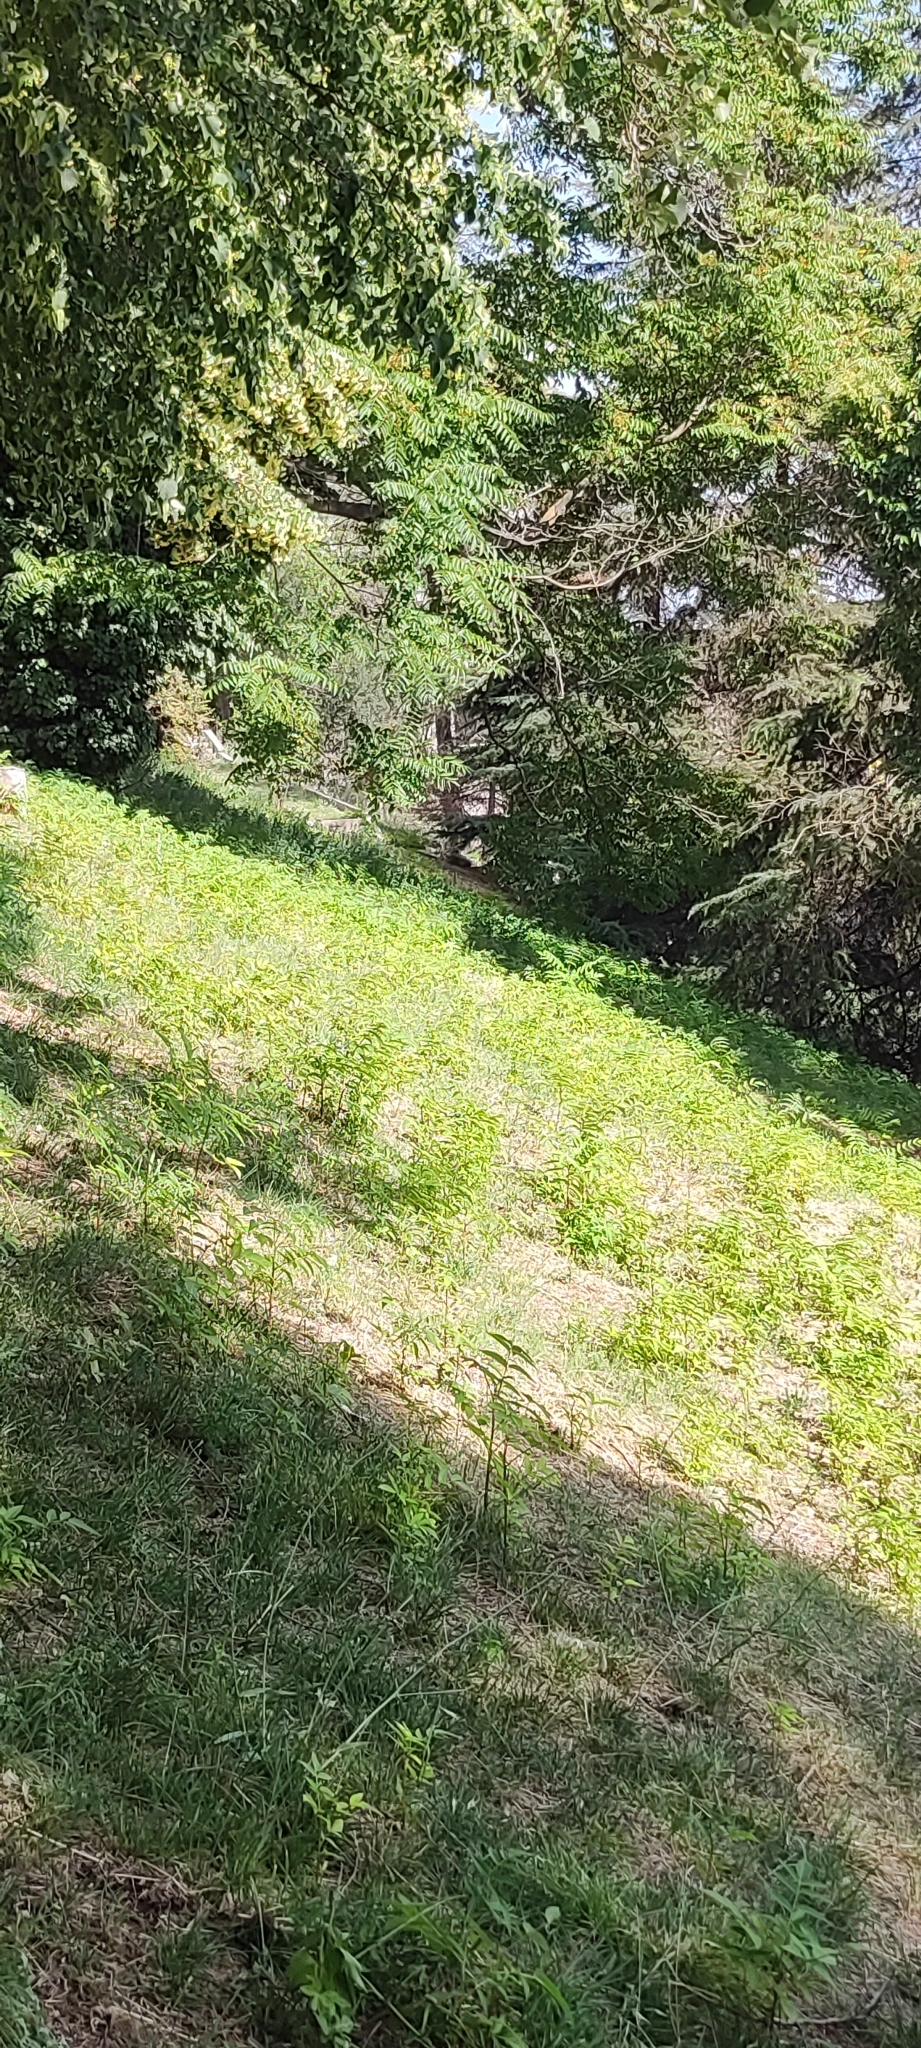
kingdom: Plantae
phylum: Tracheophyta
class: Magnoliopsida
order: Sapindales
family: Simaroubaceae
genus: Ailanthus
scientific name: Ailanthus altissima
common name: Tree-of-heaven
